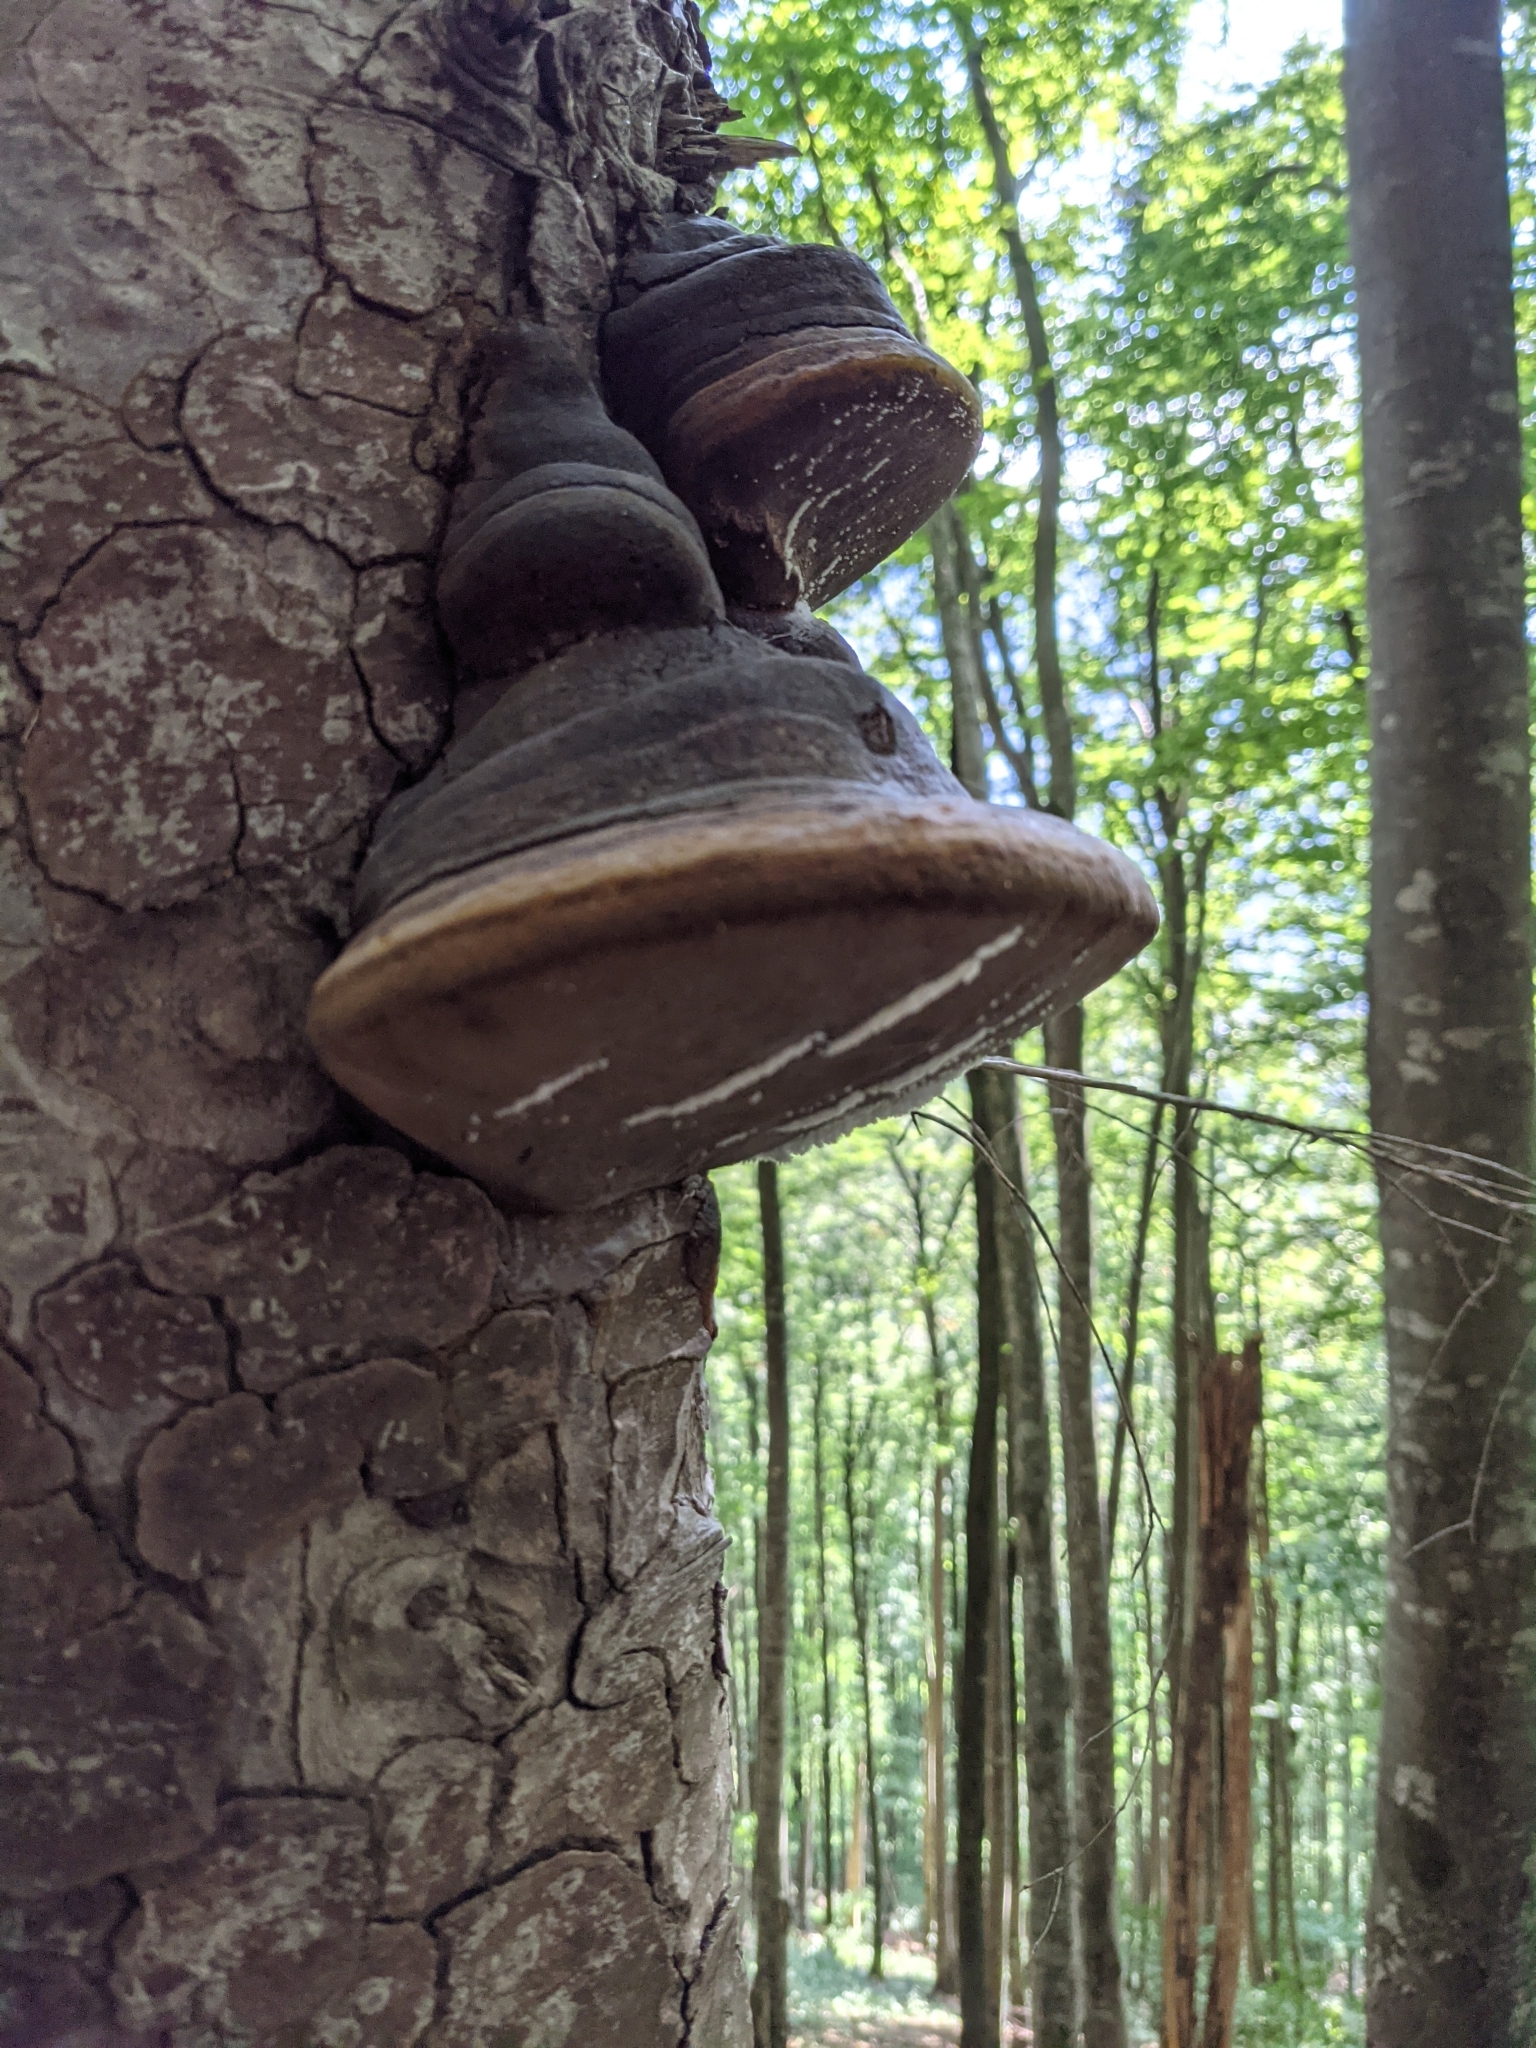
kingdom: Fungi
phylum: Basidiomycota
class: Agaricomycetes
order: Polyporales
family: Polyporaceae
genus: Fomes
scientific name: Fomes fomentarius
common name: Hoof fungus
